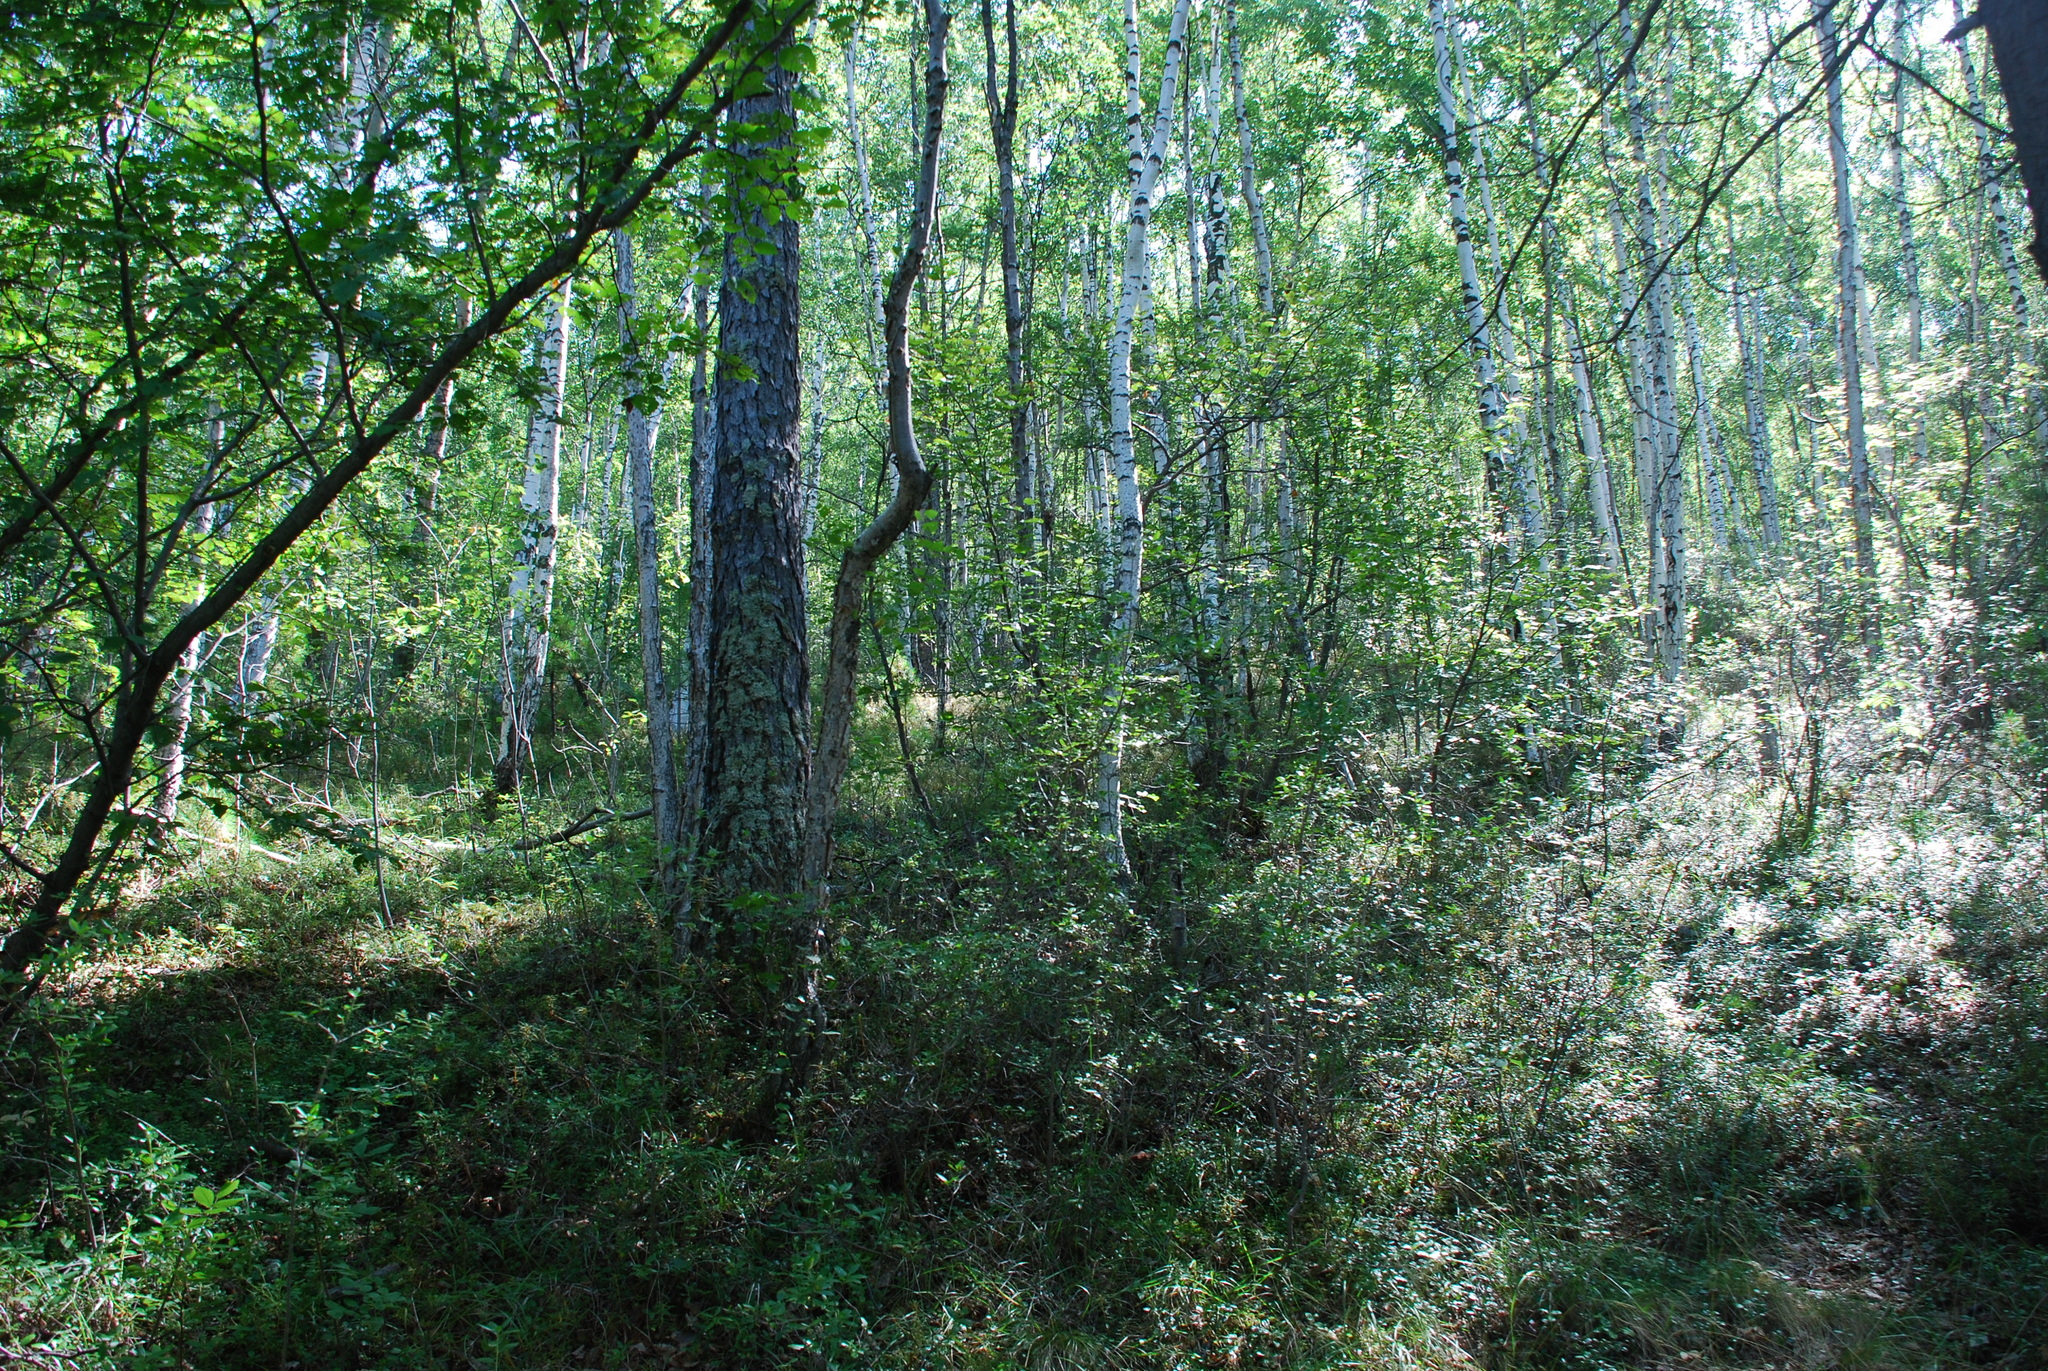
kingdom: Plantae
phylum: Tracheophyta
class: Magnoliopsida
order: Fagales
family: Betulaceae
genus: Betula
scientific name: Betula pendula
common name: Silver birch
